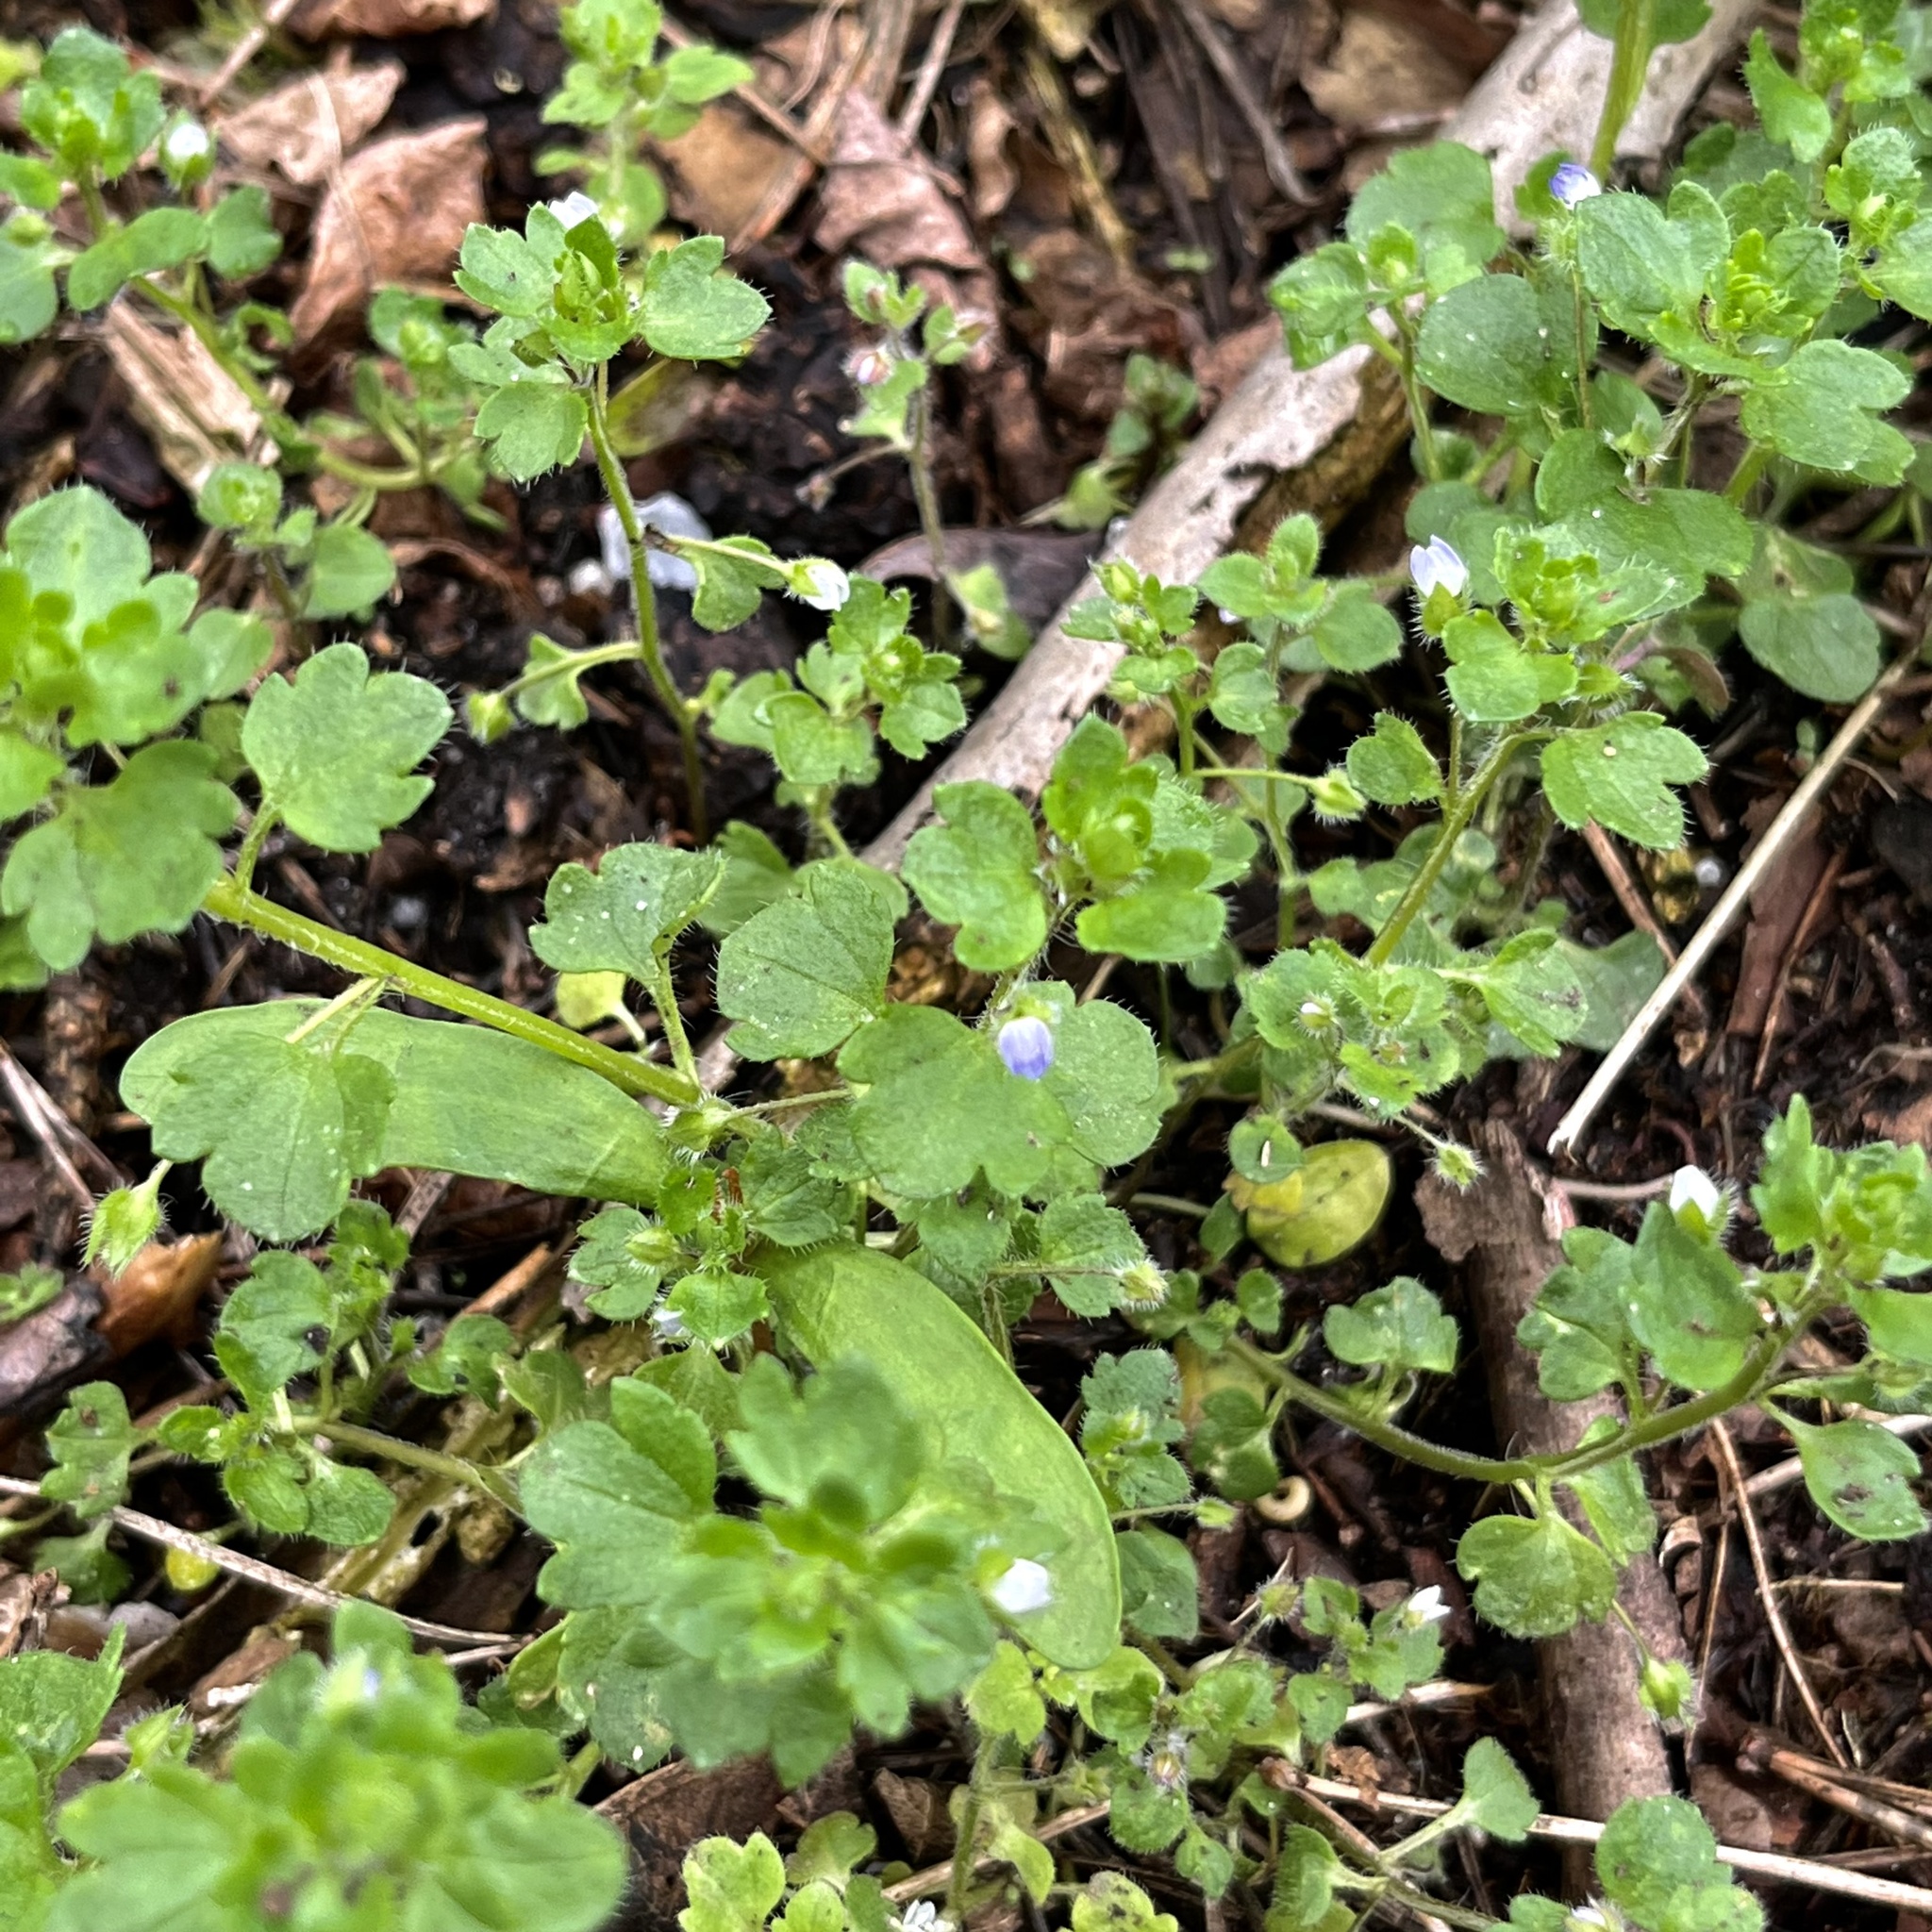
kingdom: Plantae
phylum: Tracheophyta
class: Magnoliopsida
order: Lamiales
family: Plantaginaceae
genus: Veronica
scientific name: Veronica sublobata
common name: False ivy-leaved speedwell
